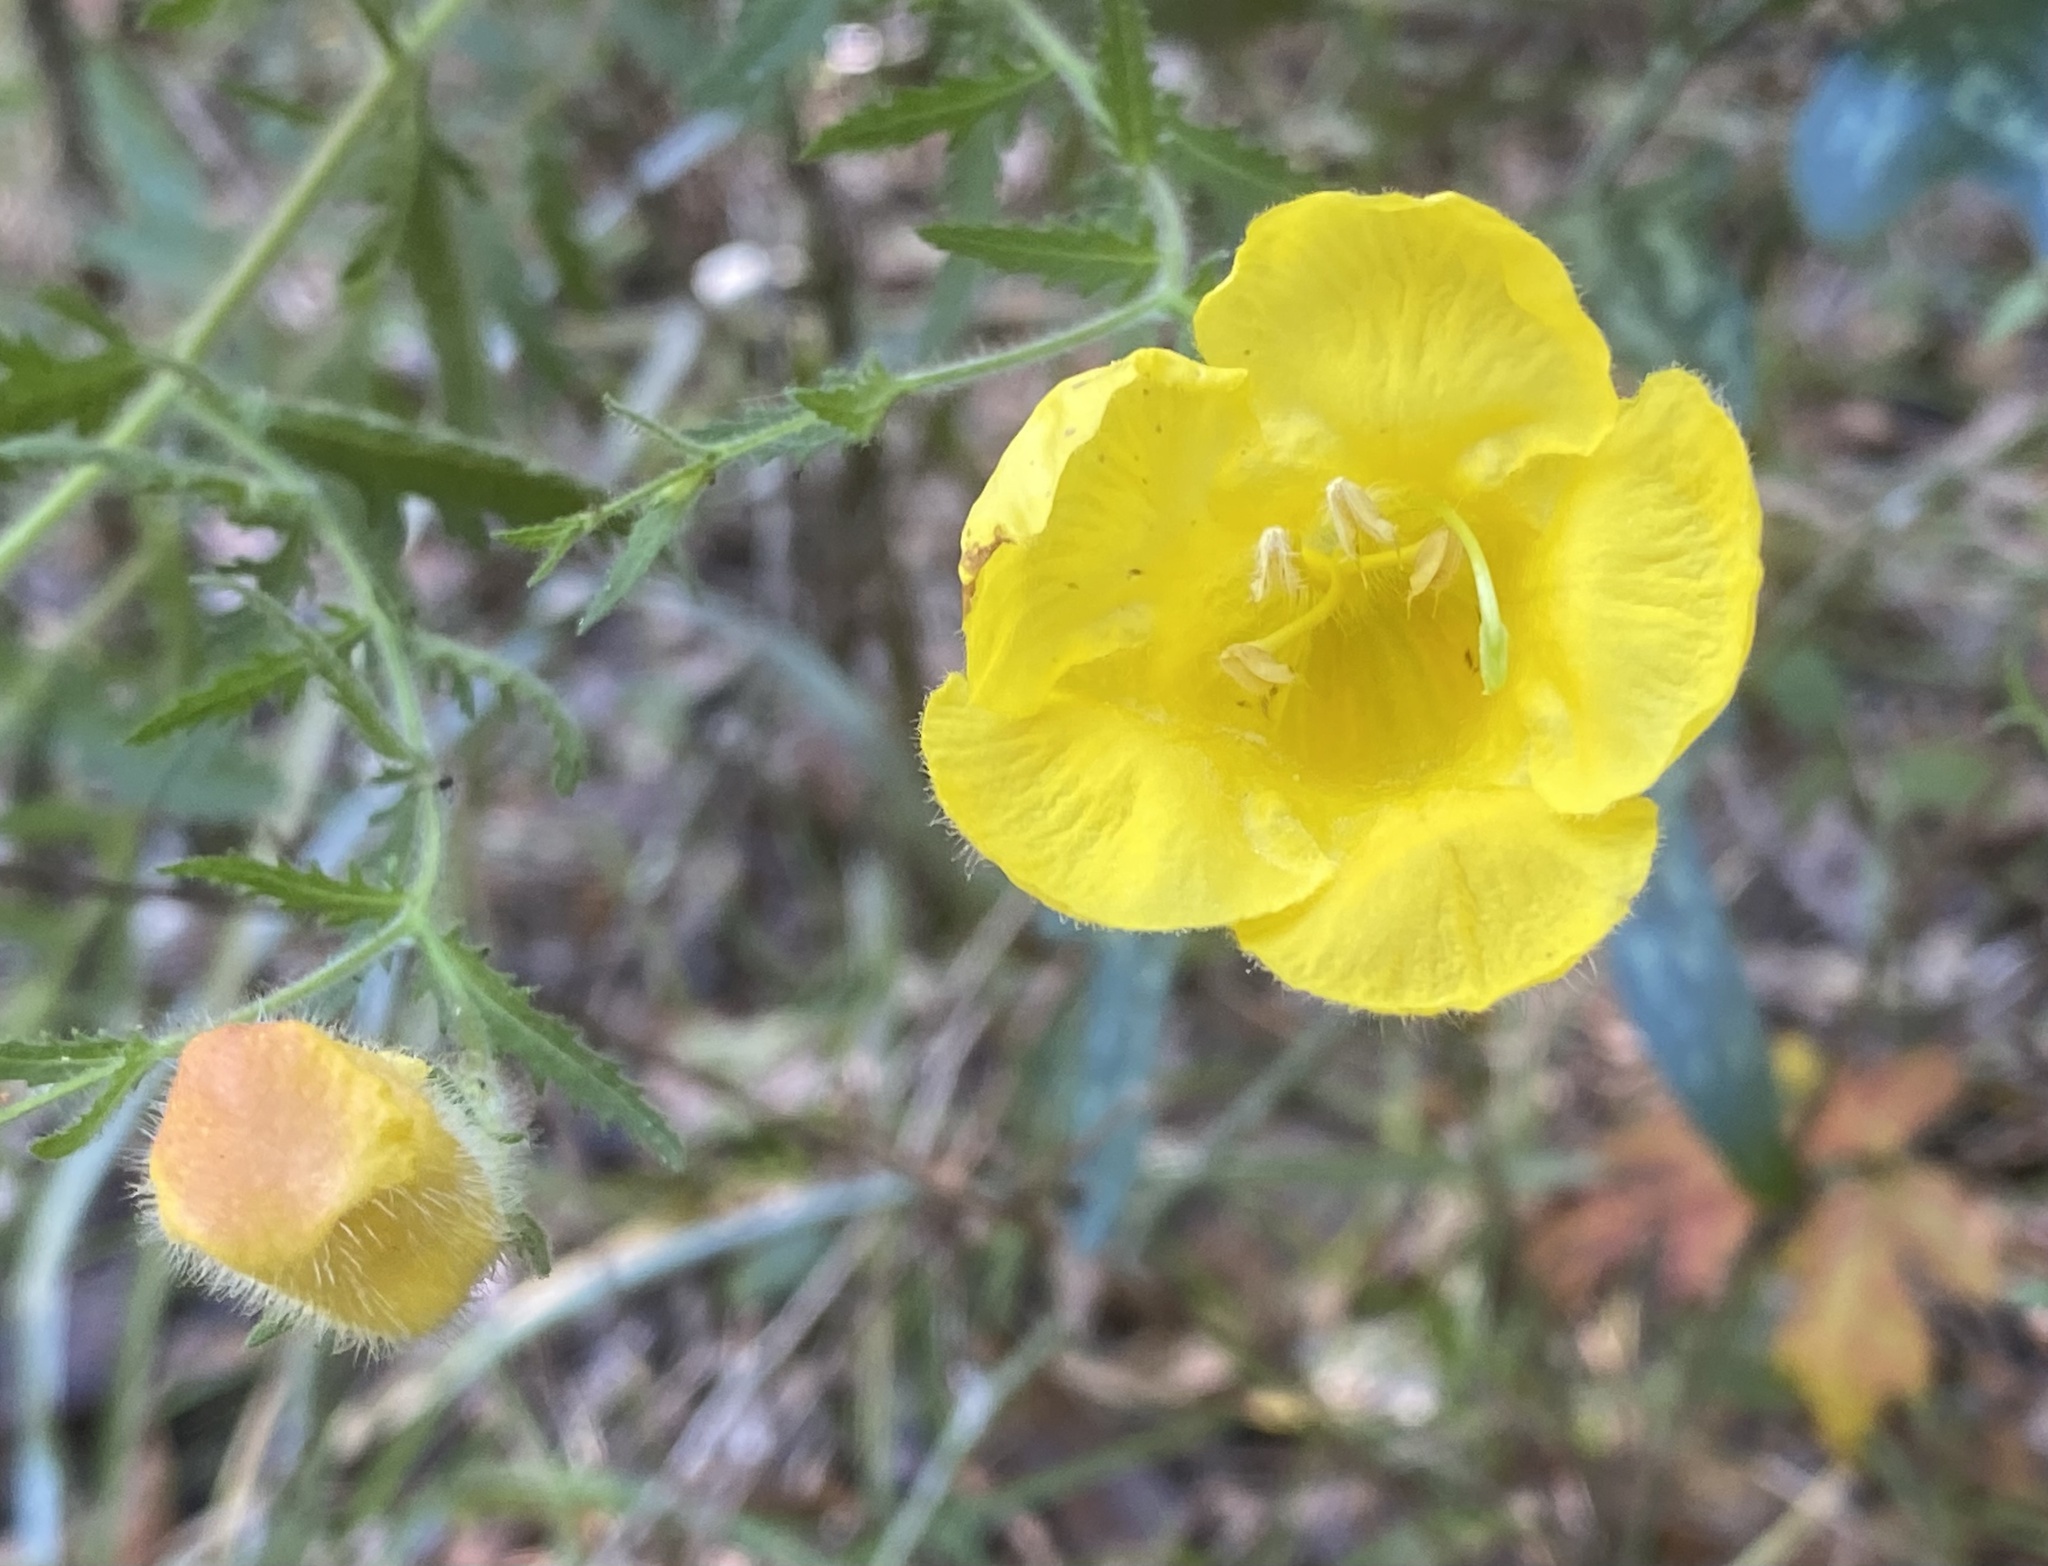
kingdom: Plantae
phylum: Tracheophyta
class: Magnoliopsida
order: Lamiales
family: Orobanchaceae
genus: Aureolaria
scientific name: Aureolaria pectinata
